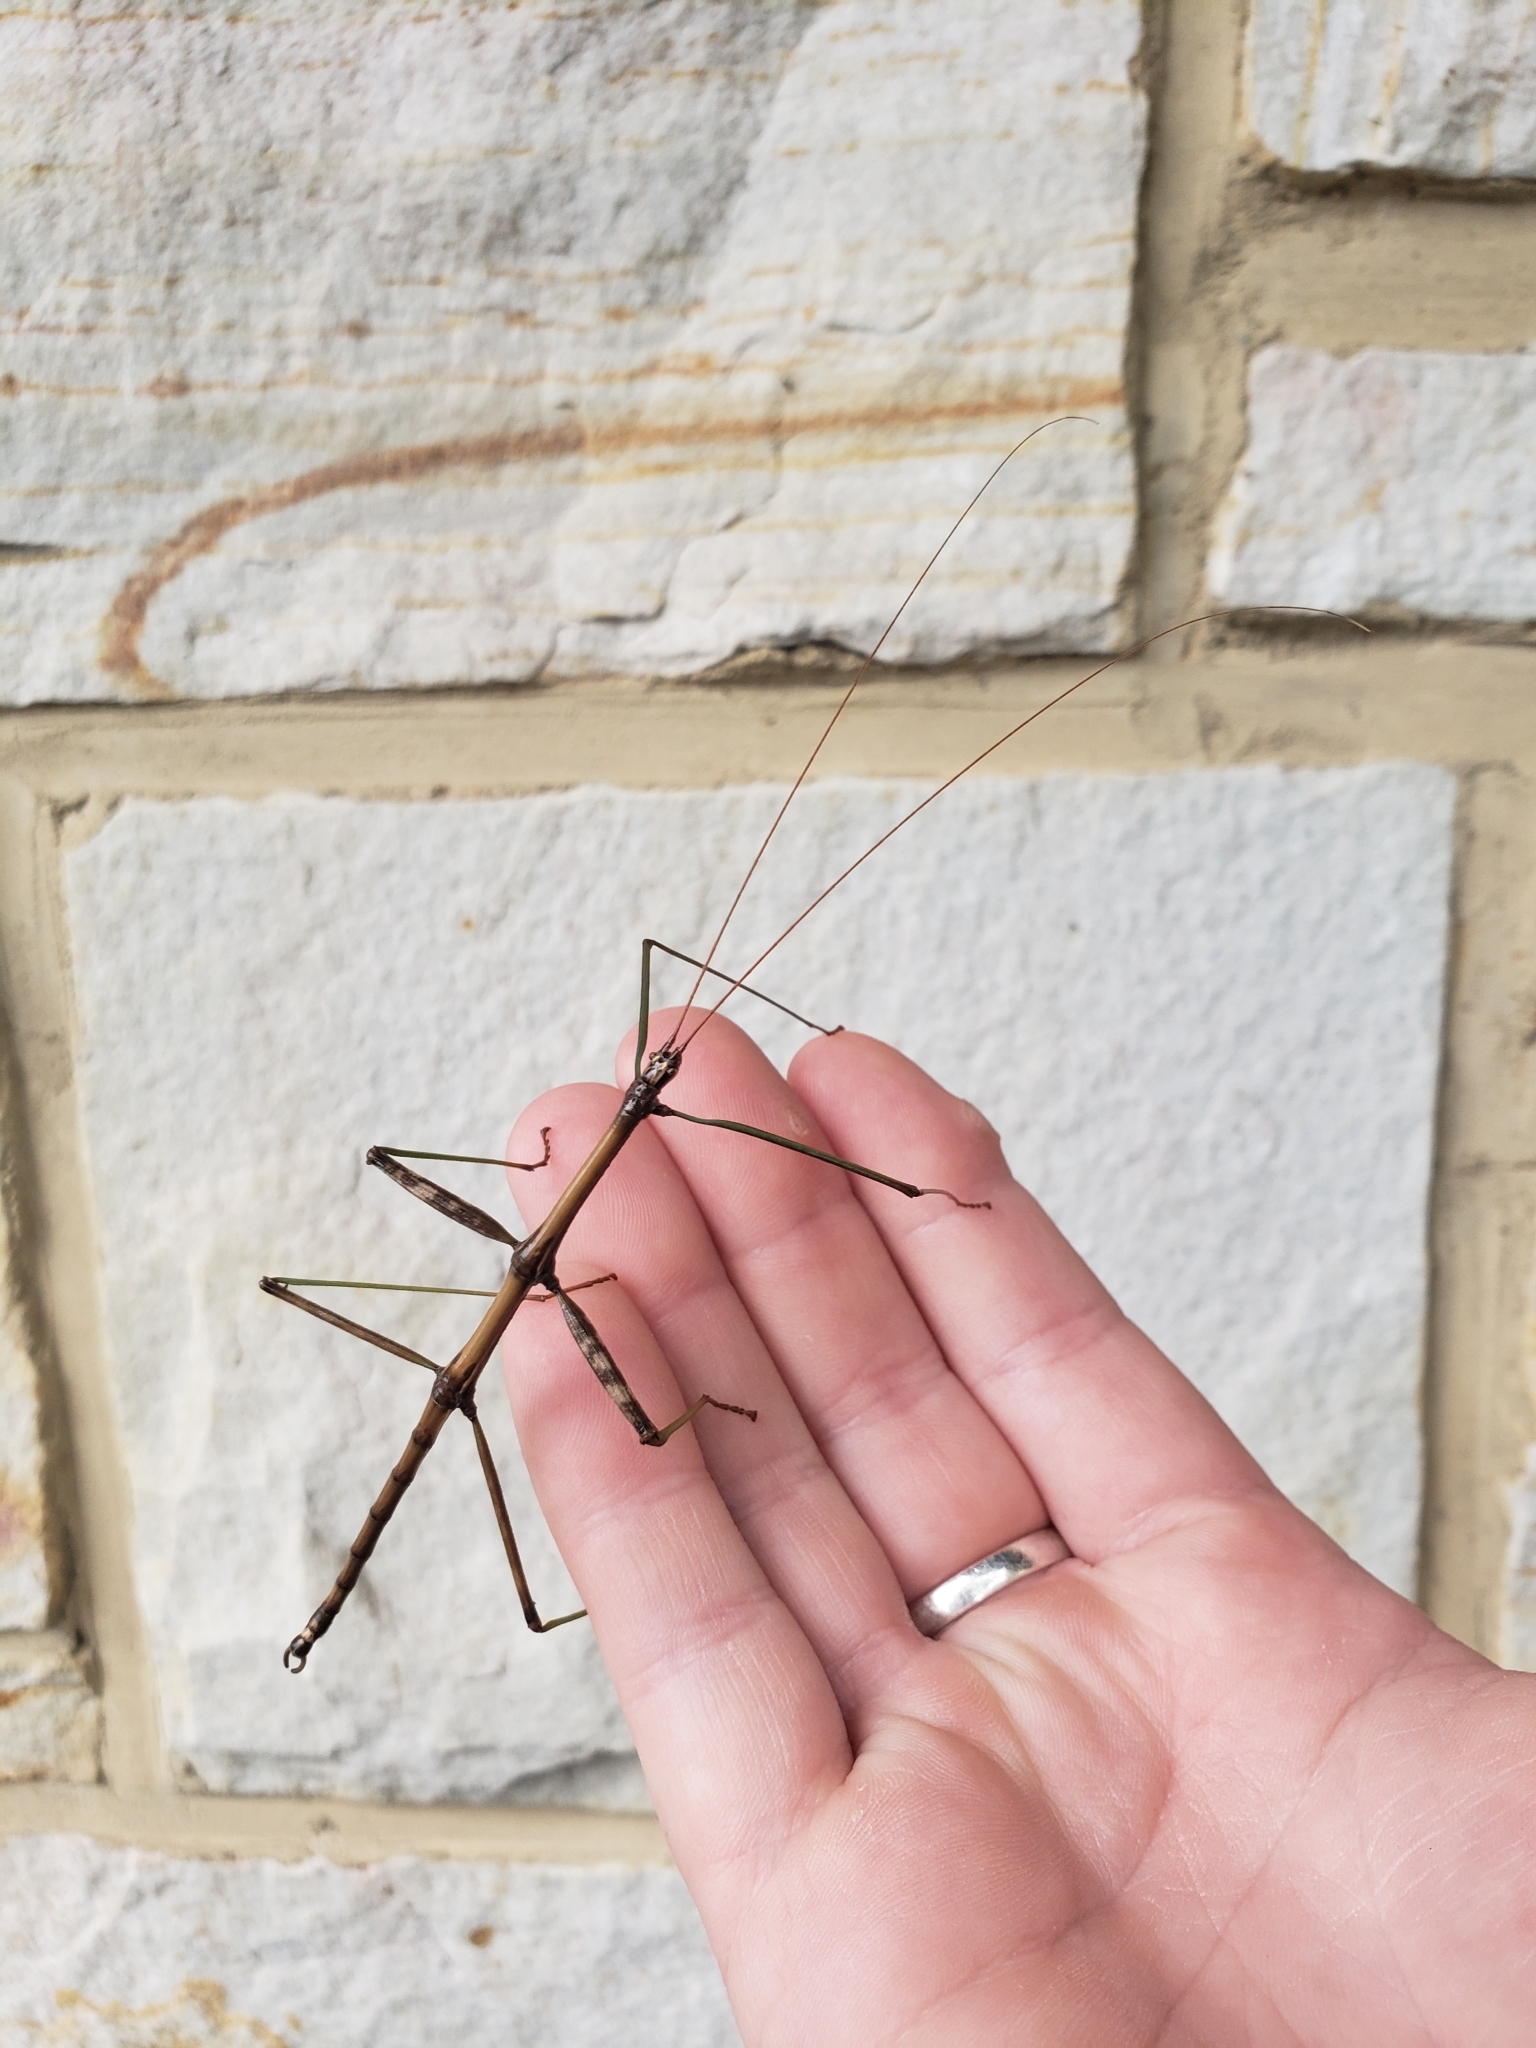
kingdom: Animalia
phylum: Arthropoda
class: Insecta
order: Phasmida
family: Diapheromeridae
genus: Diapheromera
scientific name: Diapheromera femorata
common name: Common american walkingstick
